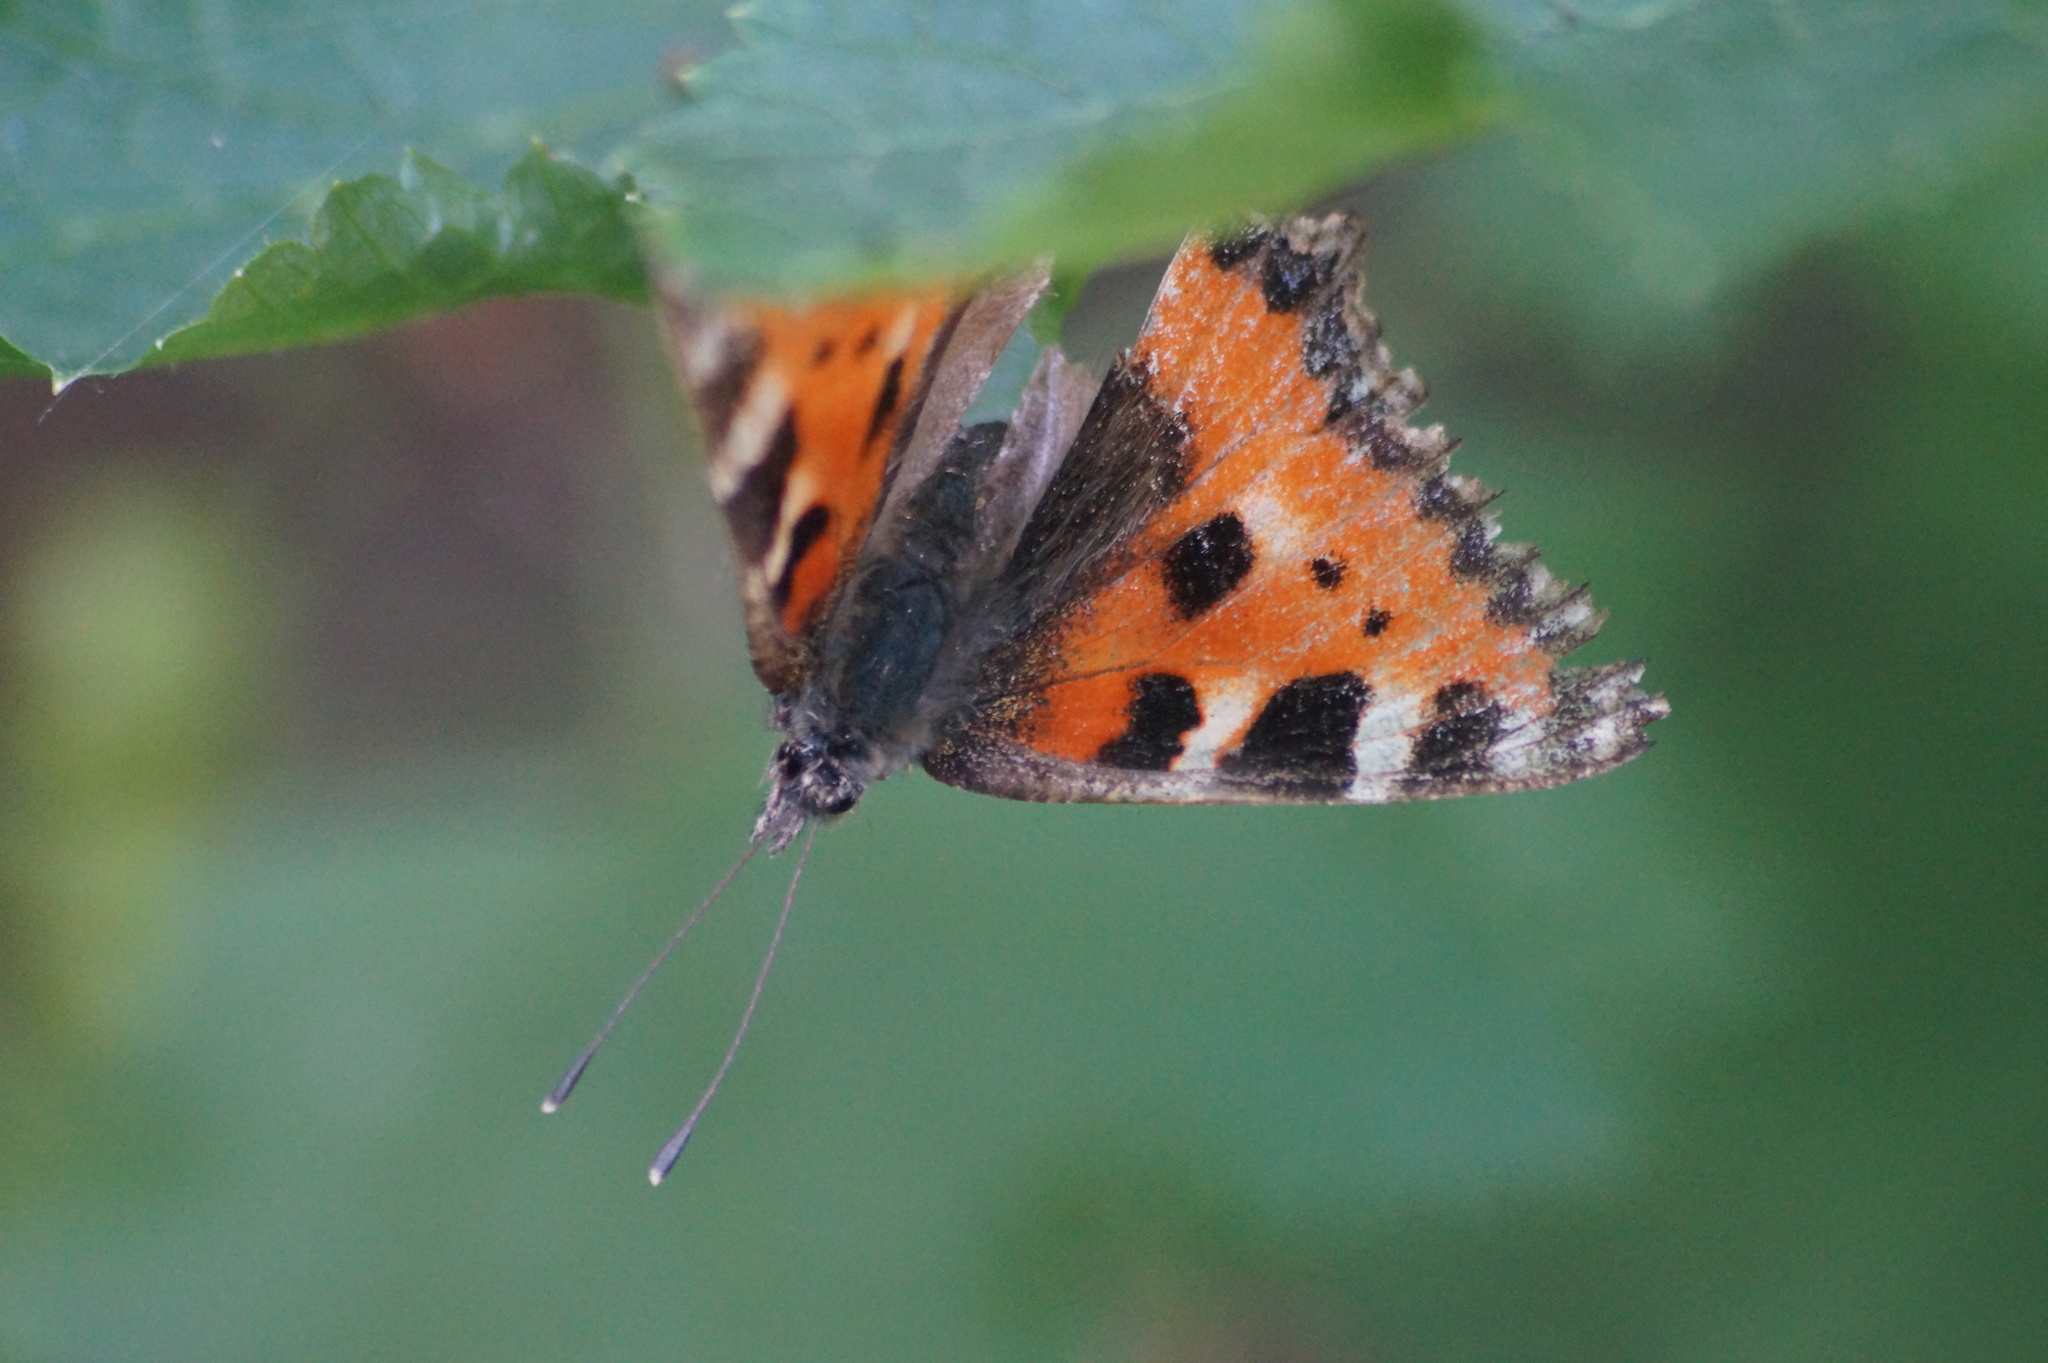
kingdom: Animalia
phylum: Arthropoda
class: Insecta
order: Lepidoptera
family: Nymphalidae
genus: Aglais
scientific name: Aglais urticae
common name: Small tortoiseshell
